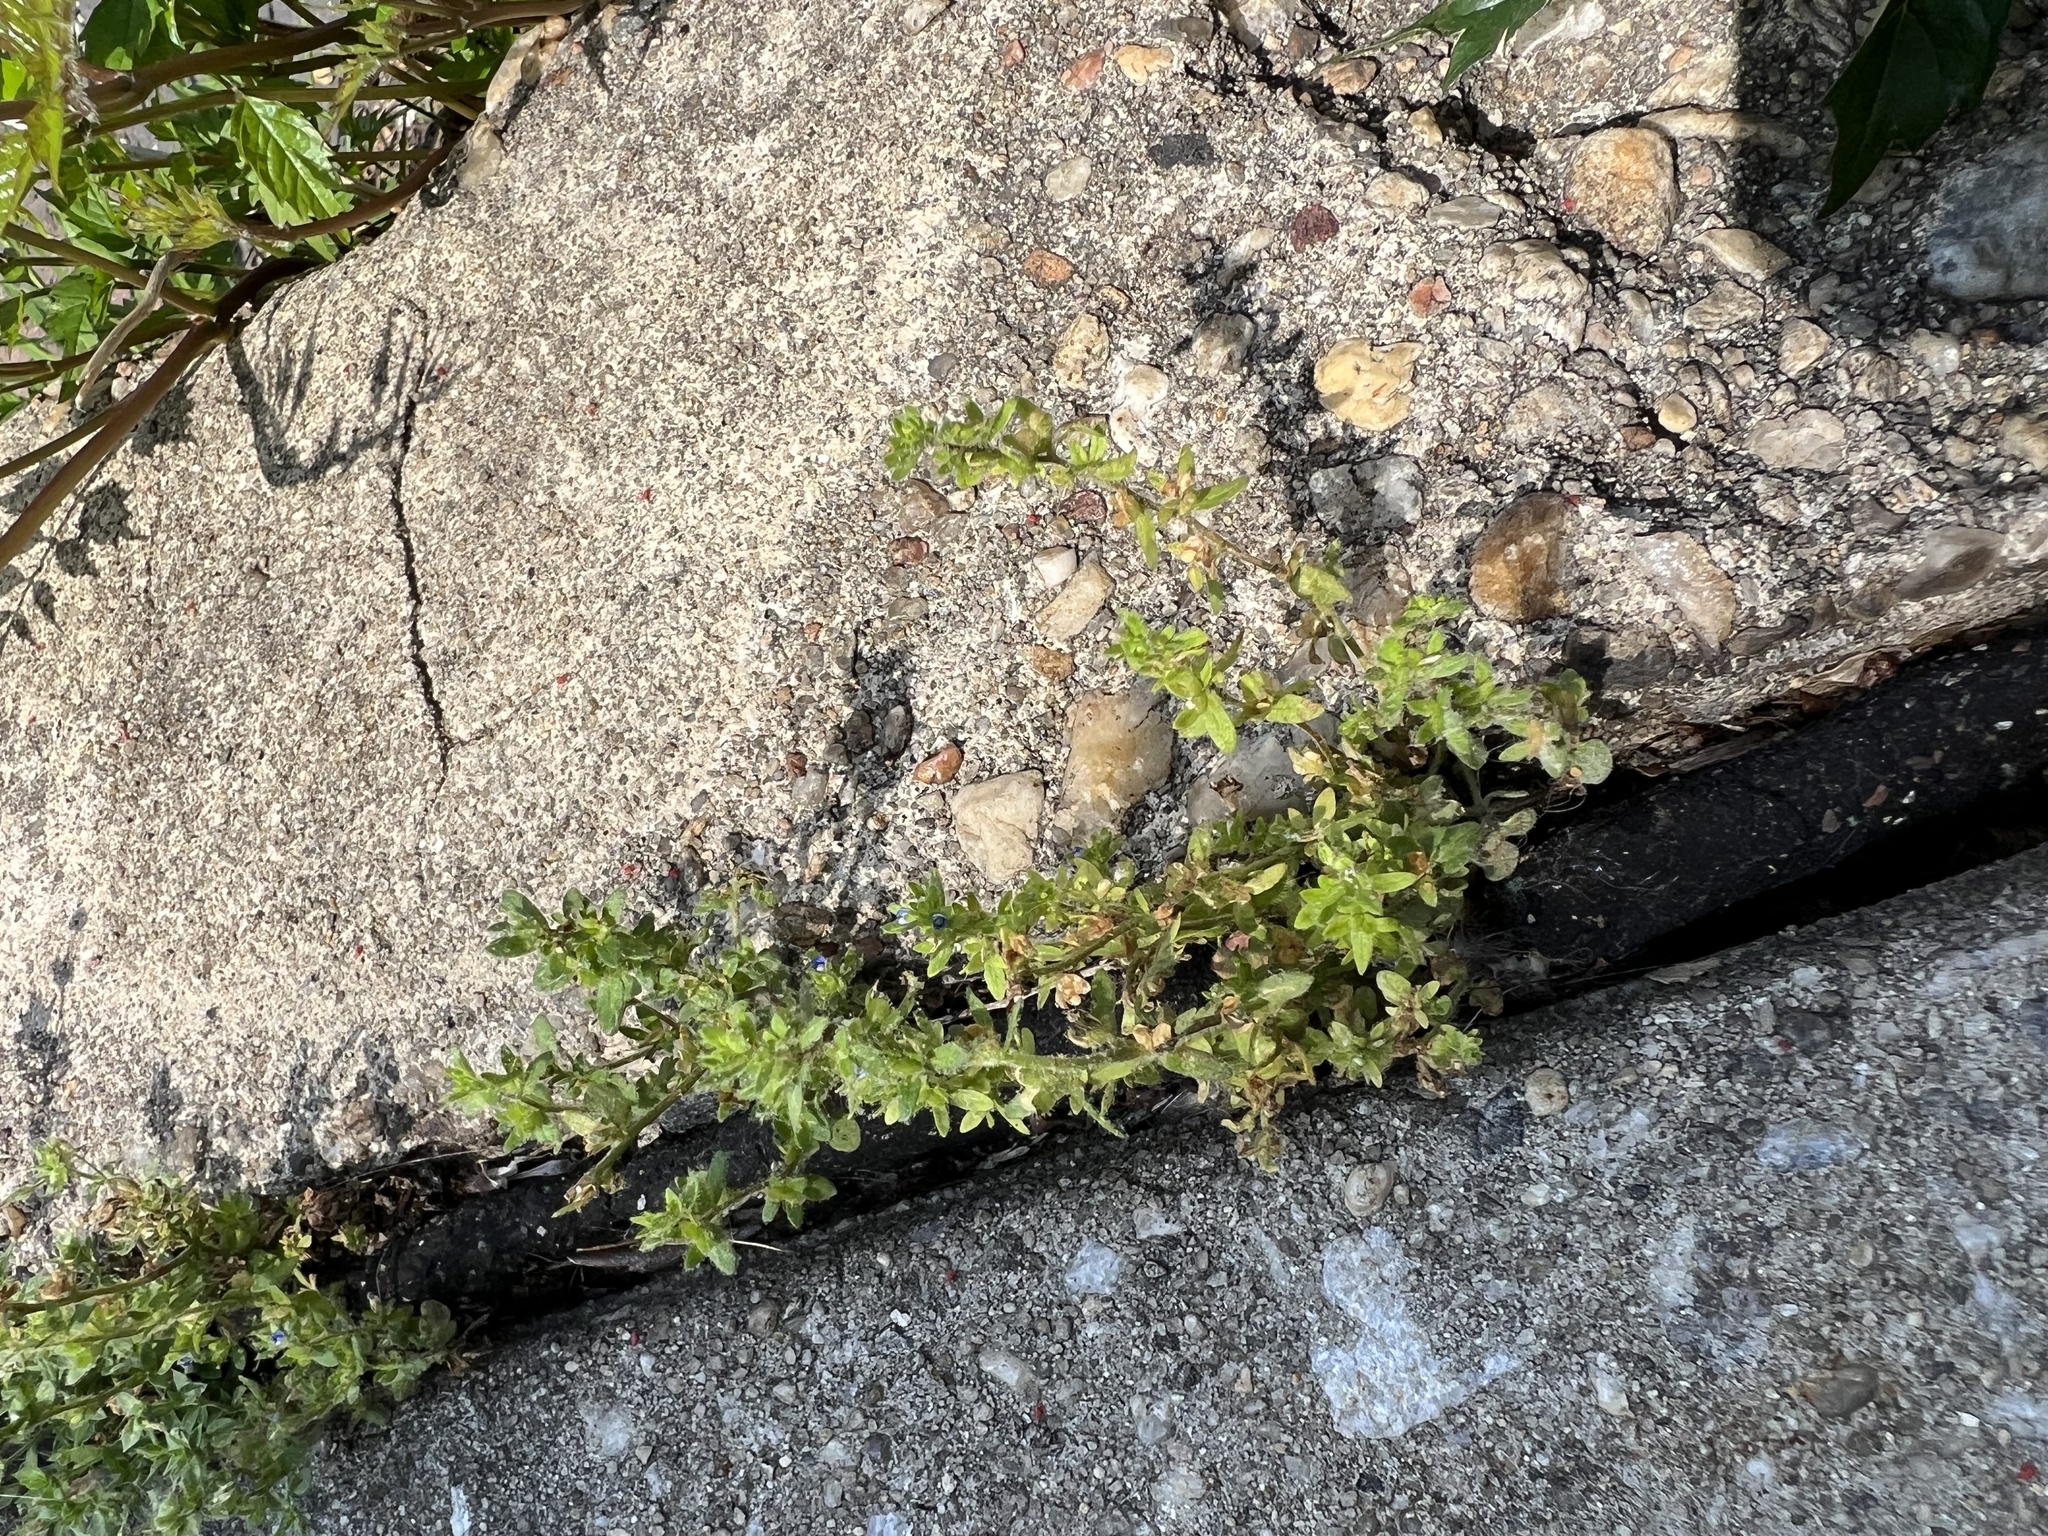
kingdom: Plantae
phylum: Tracheophyta
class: Magnoliopsida
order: Lamiales
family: Plantaginaceae
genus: Veronica
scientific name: Veronica arvensis
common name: Corn speedwell
